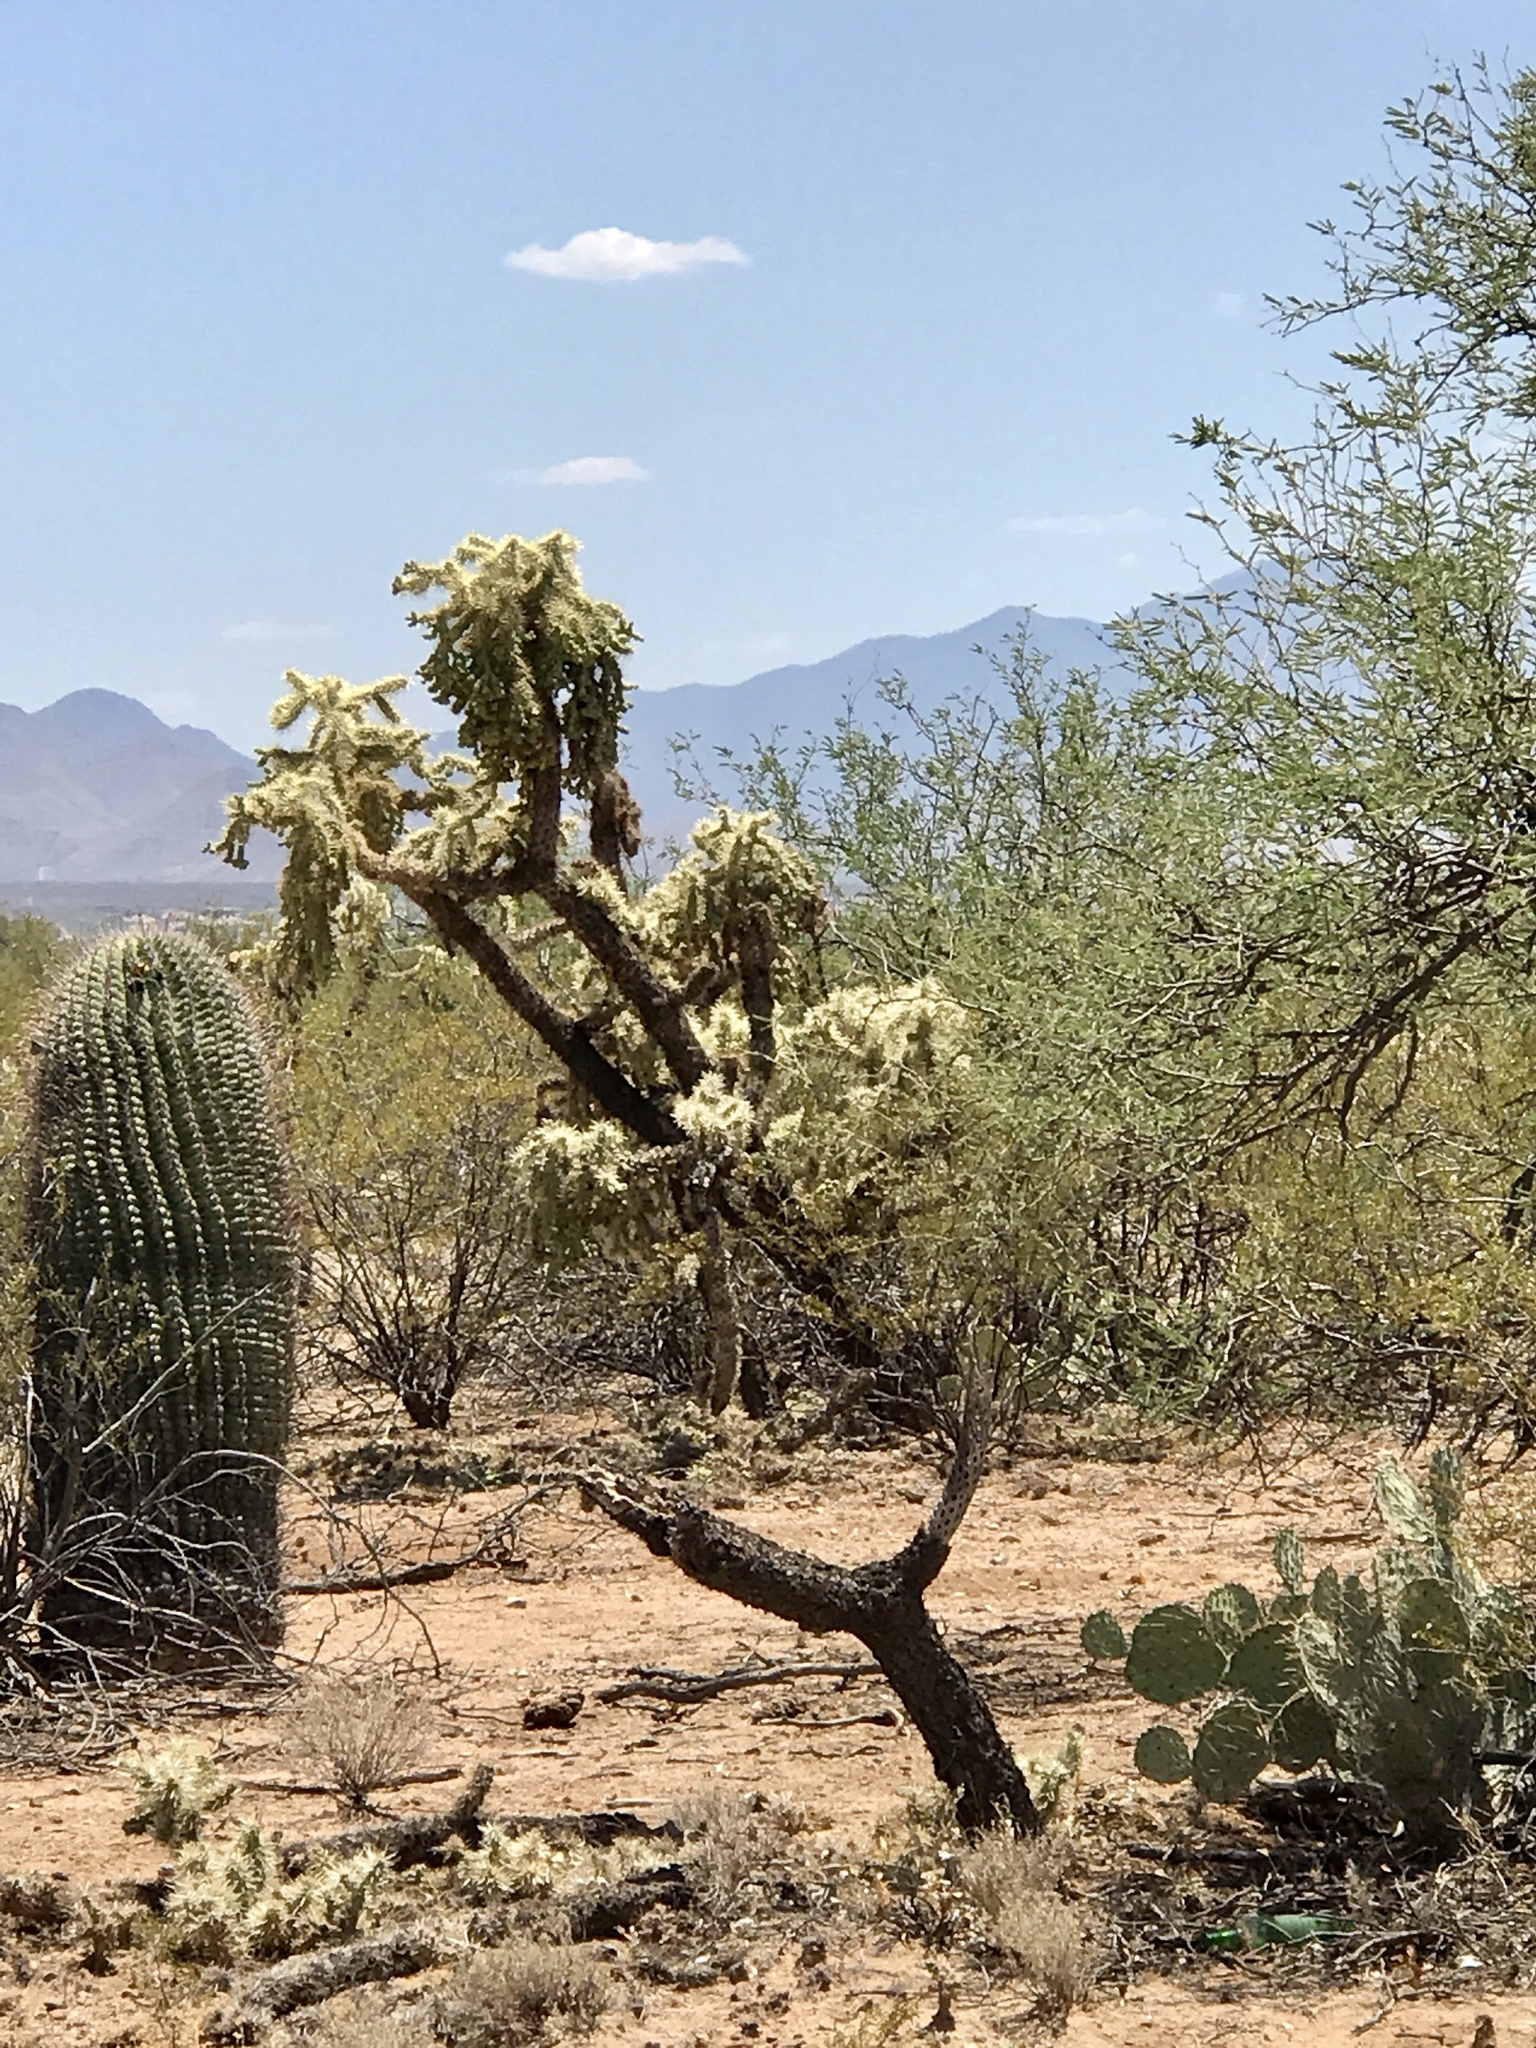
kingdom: Plantae
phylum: Tracheophyta
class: Magnoliopsida
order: Caryophyllales
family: Cactaceae
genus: Cylindropuntia
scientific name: Cylindropuntia fulgida
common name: Jumping cholla
